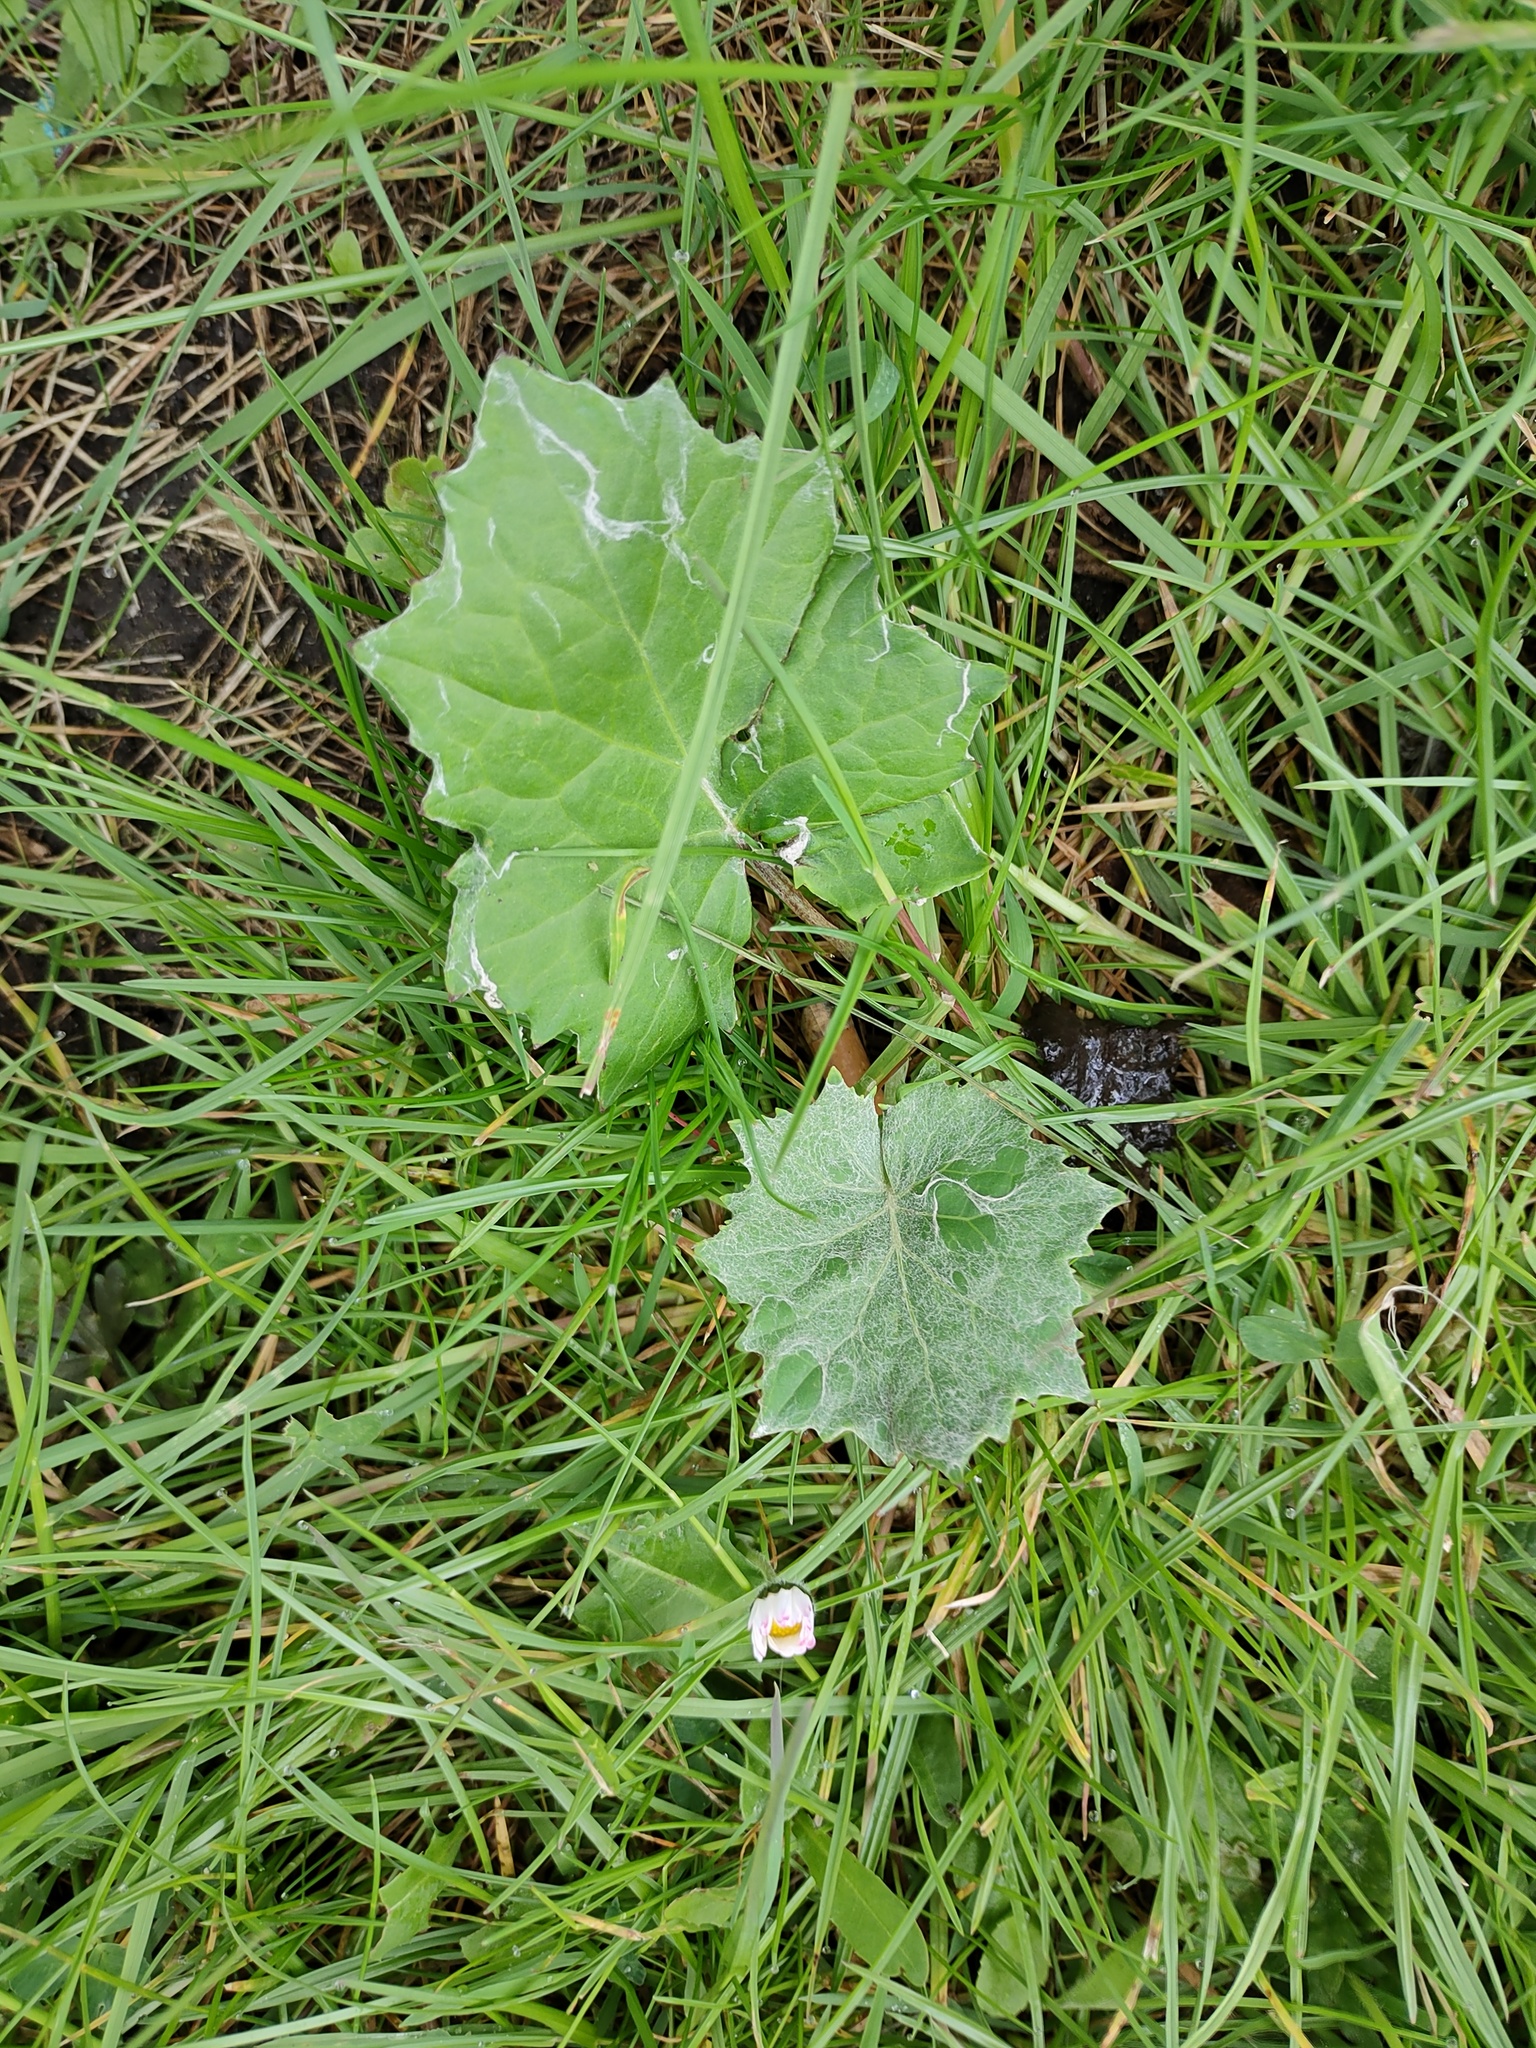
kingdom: Plantae
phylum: Tracheophyta
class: Magnoliopsida
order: Asterales
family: Asteraceae
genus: Tussilago
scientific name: Tussilago farfara
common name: Coltsfoot
